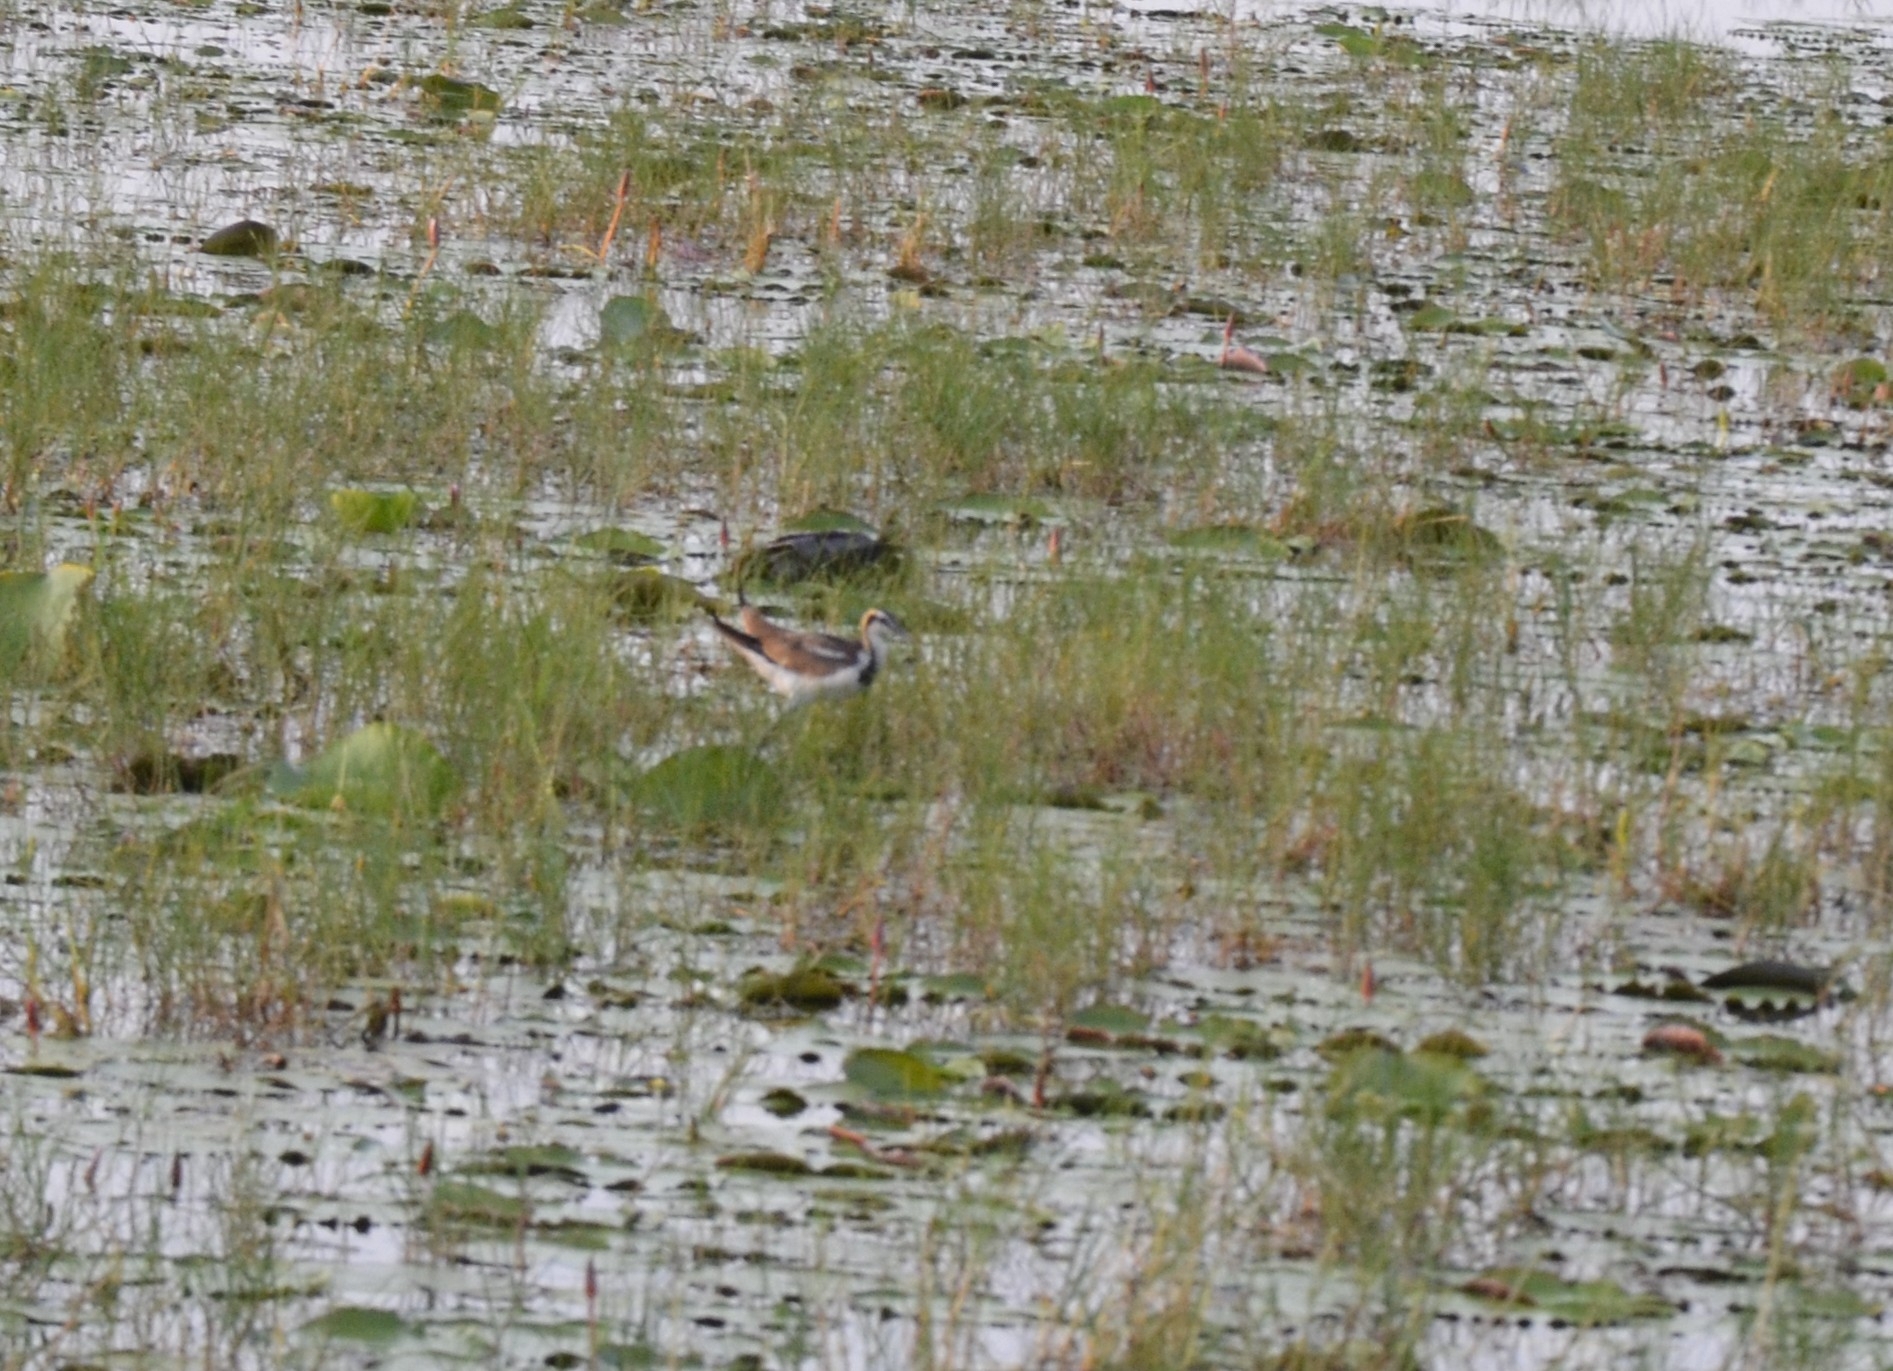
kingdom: Animalia
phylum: Chordata
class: Aves
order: Charadriiformes
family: Jacanidae
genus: Hydrophasianus
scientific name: Hydrophasianus chirurgus
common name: Pheasant-tailed jacana
